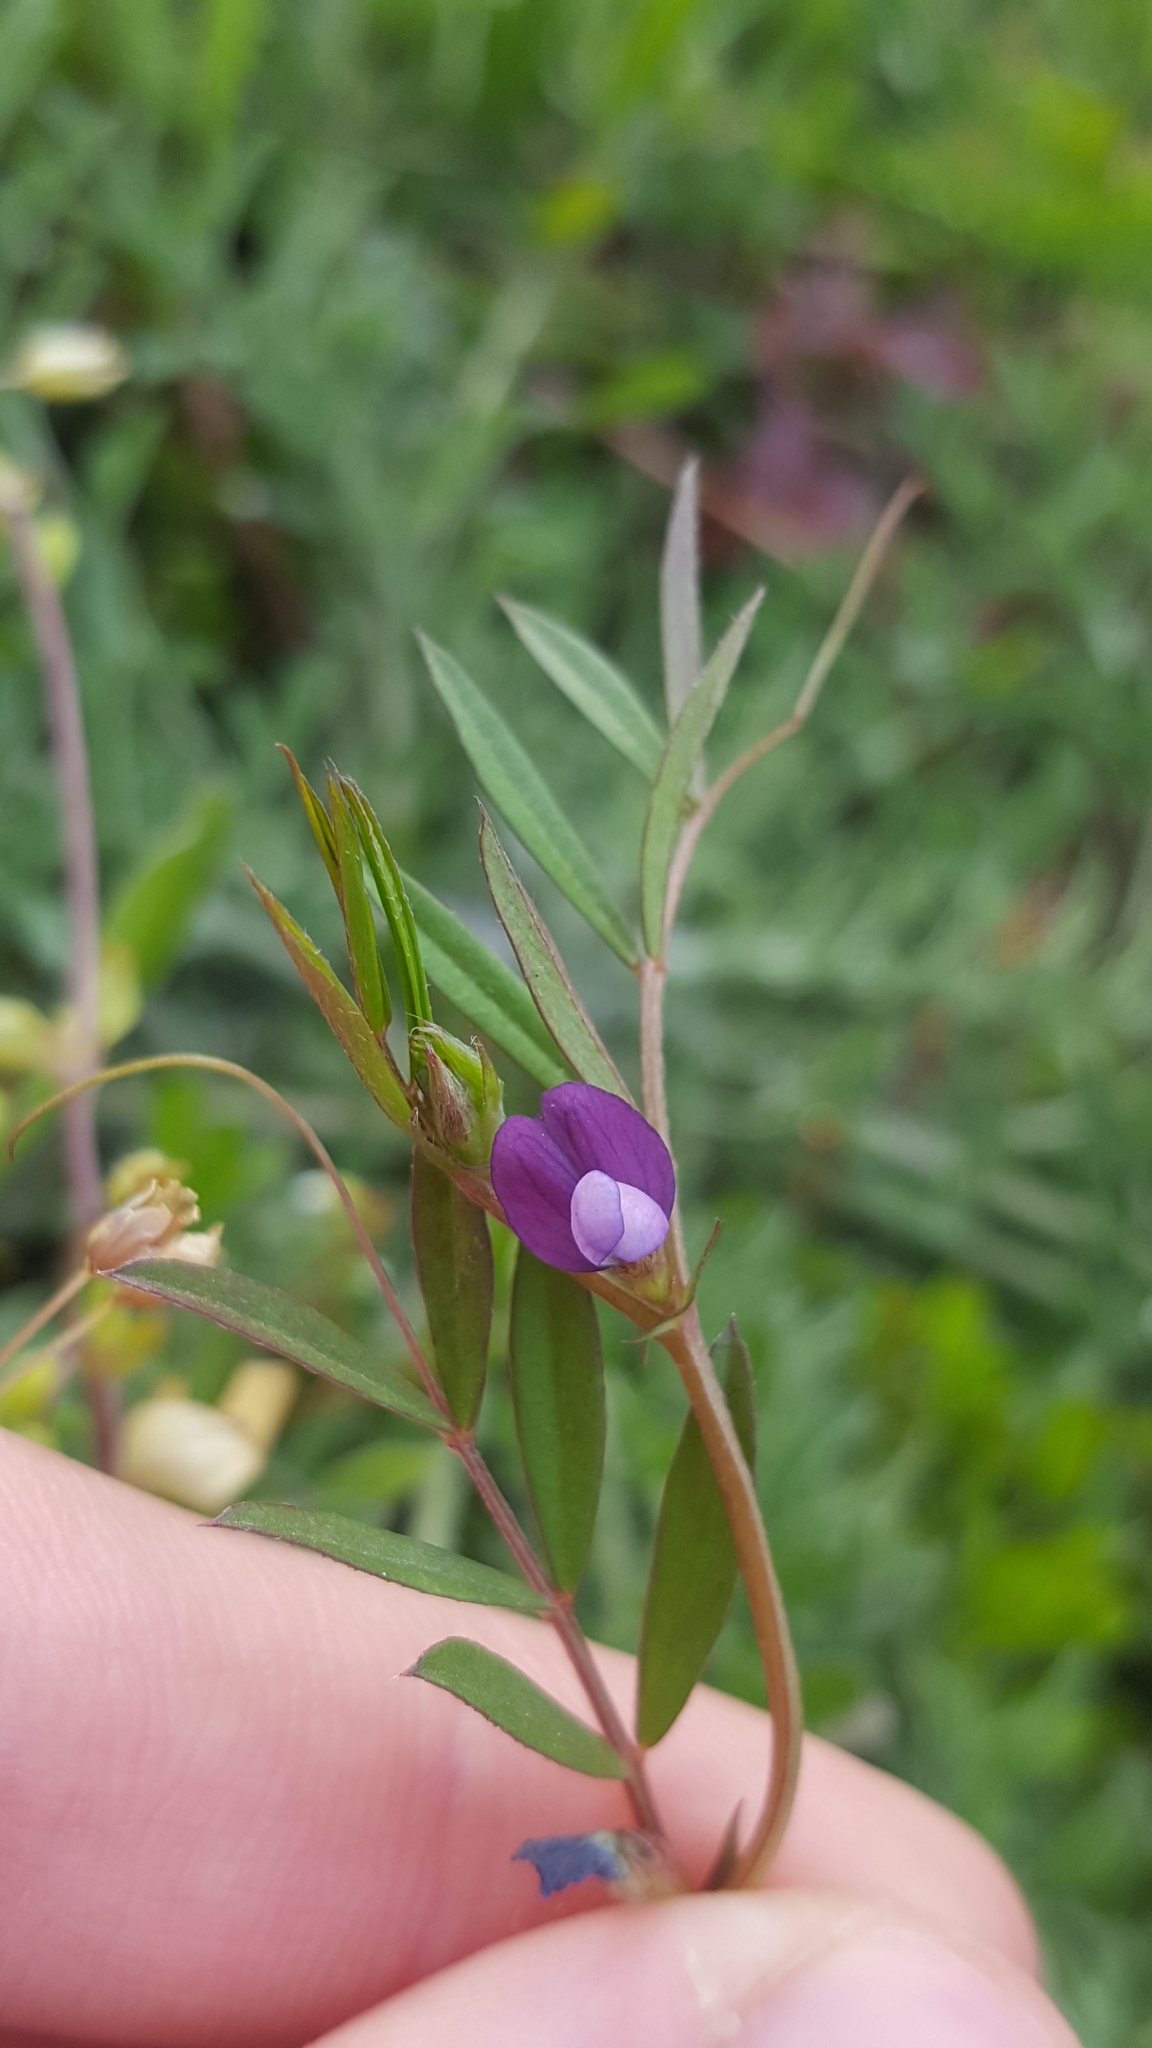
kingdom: Plantae
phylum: Tracheophyta
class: Magnoliopsida
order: Fabales
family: Fabaceae
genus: Vicia
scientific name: Vicia sativa
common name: Garden vetch
